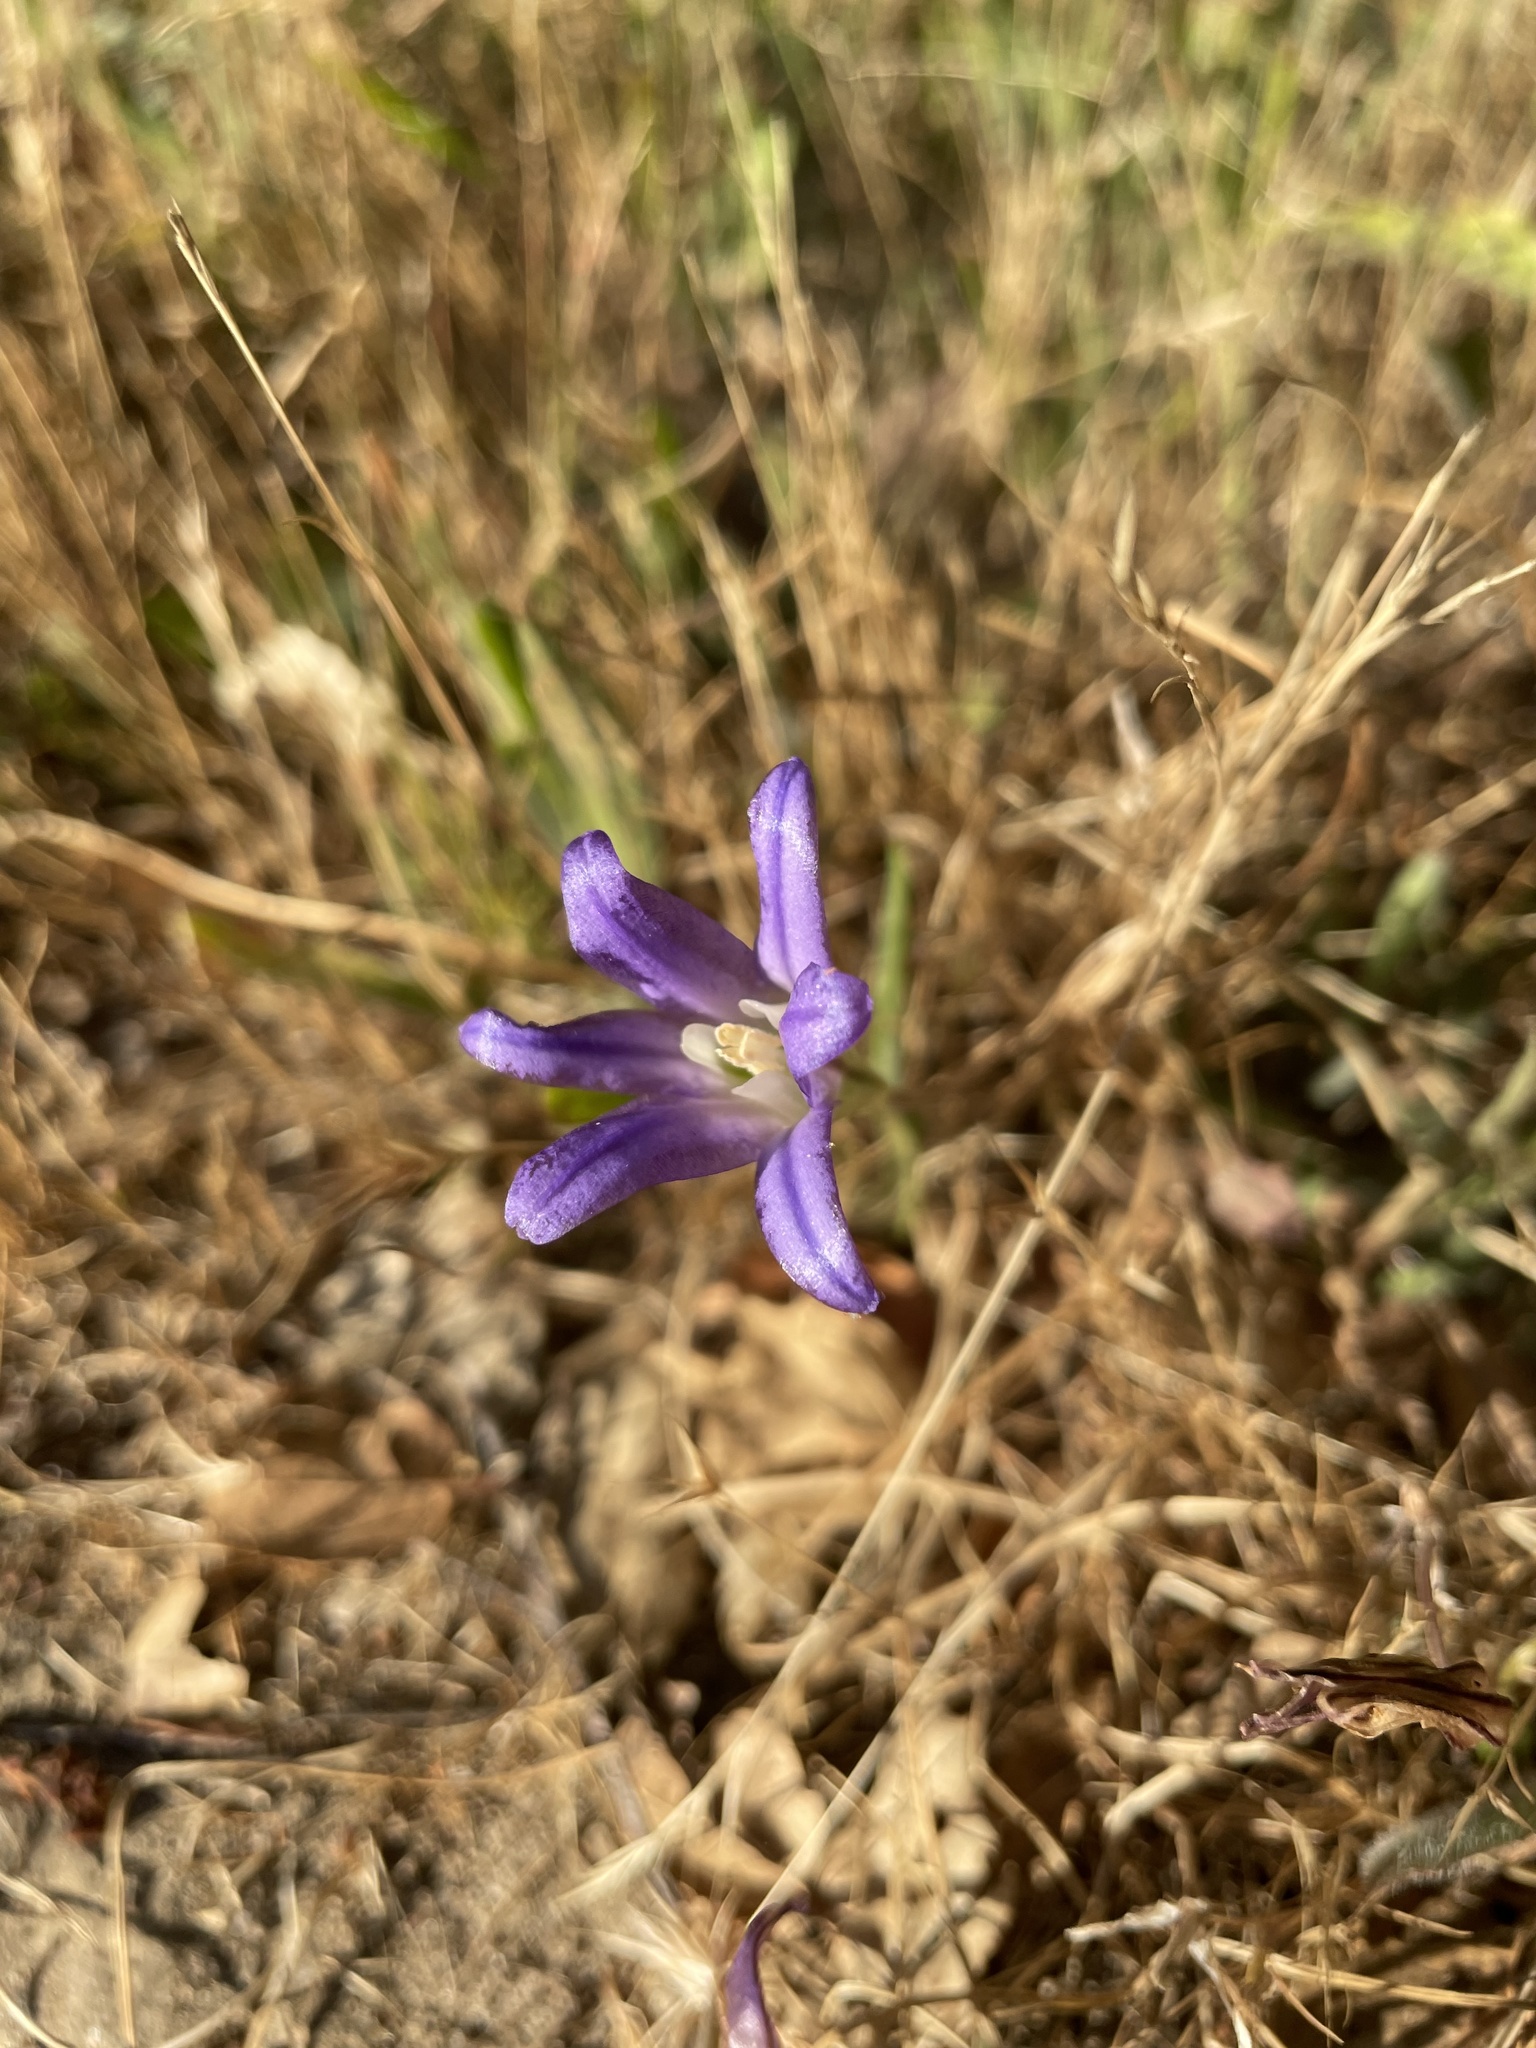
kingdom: Plantae
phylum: Tracheophyta
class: Liliopsida
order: Asparagales
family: Asparagaceae
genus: Brodiaea
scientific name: Brodiaea terrestris
